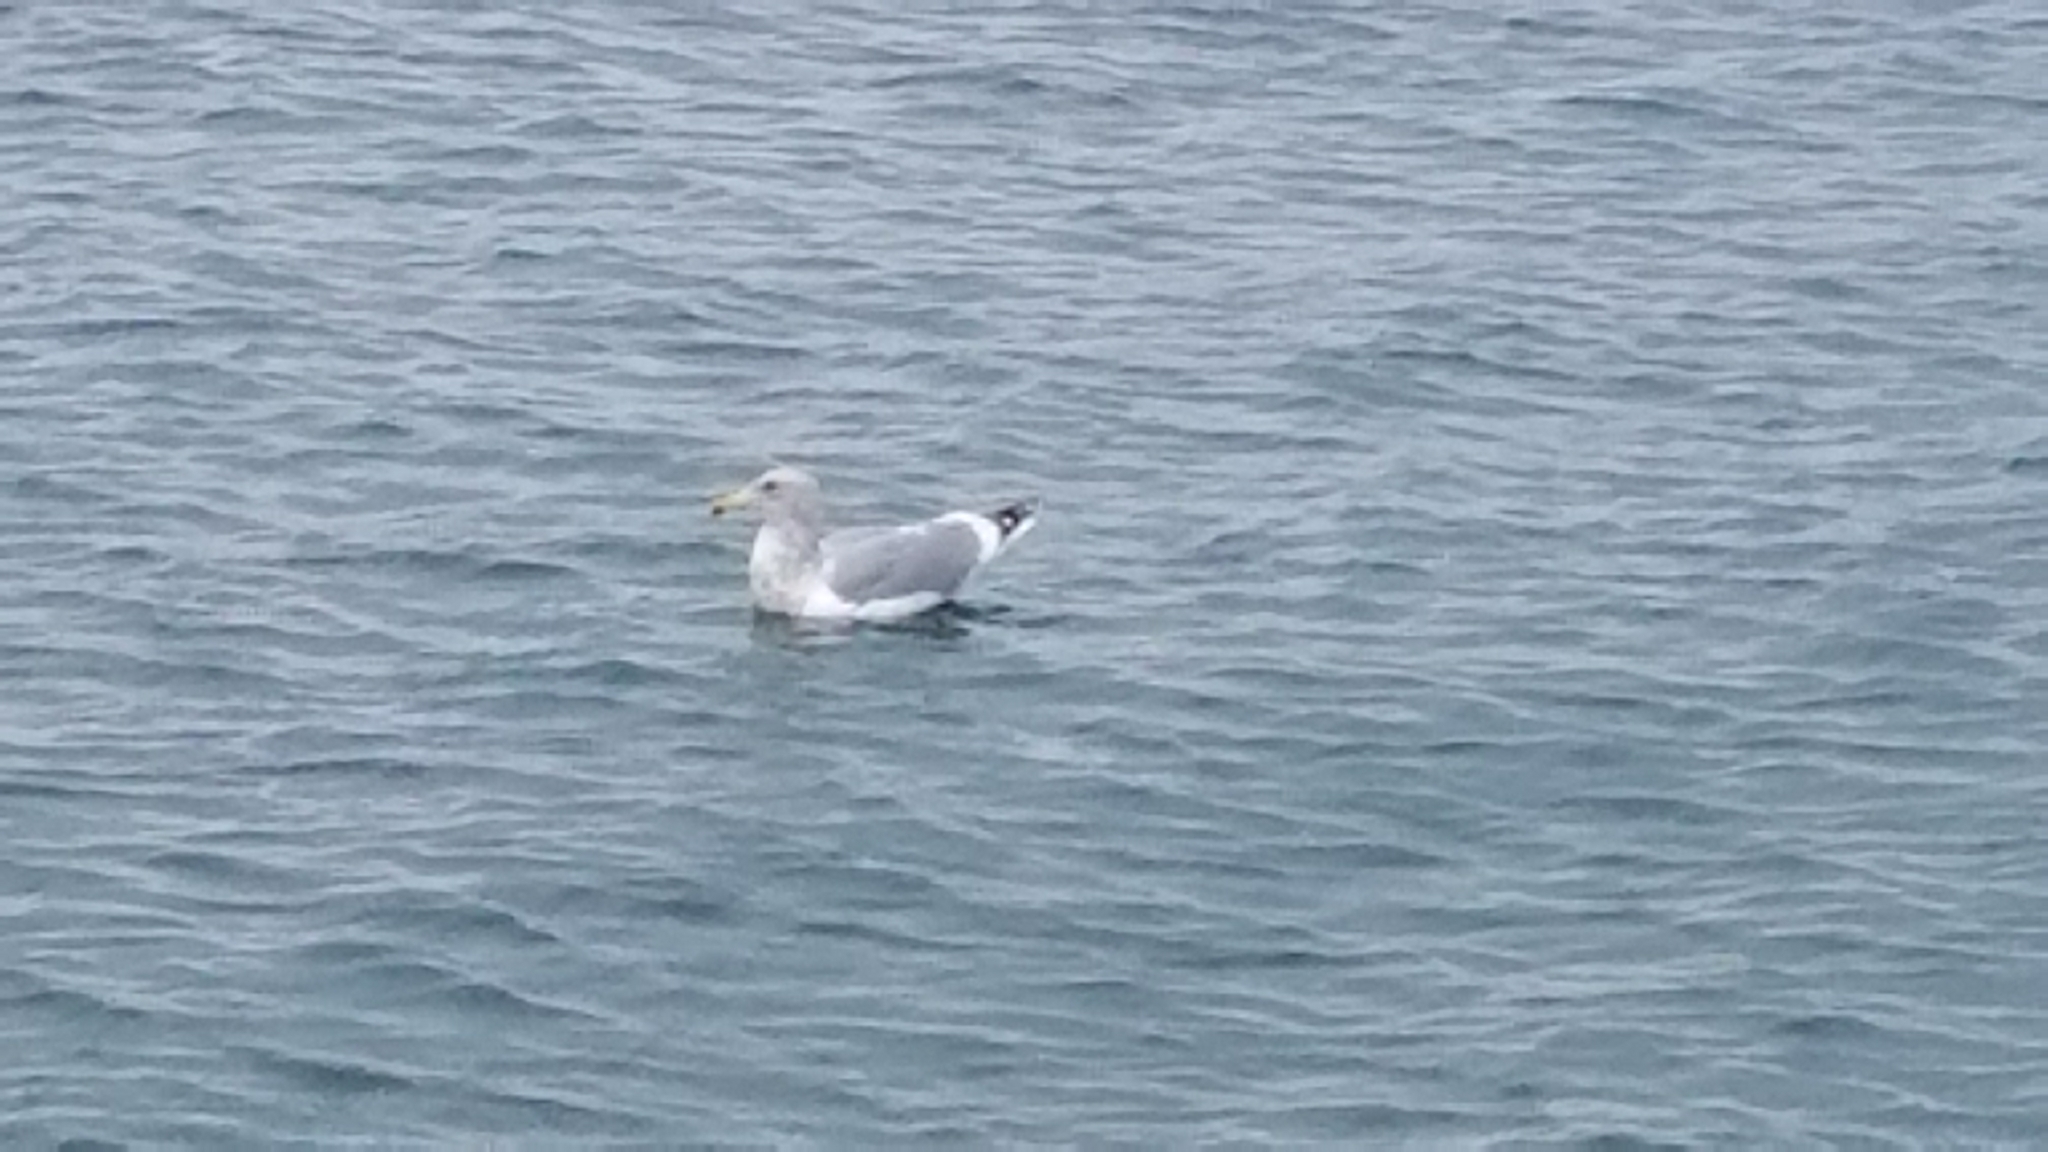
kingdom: Animalia
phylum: Chordata
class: Aves
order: Charadriiformes
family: Laridae
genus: Larus
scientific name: Larus
